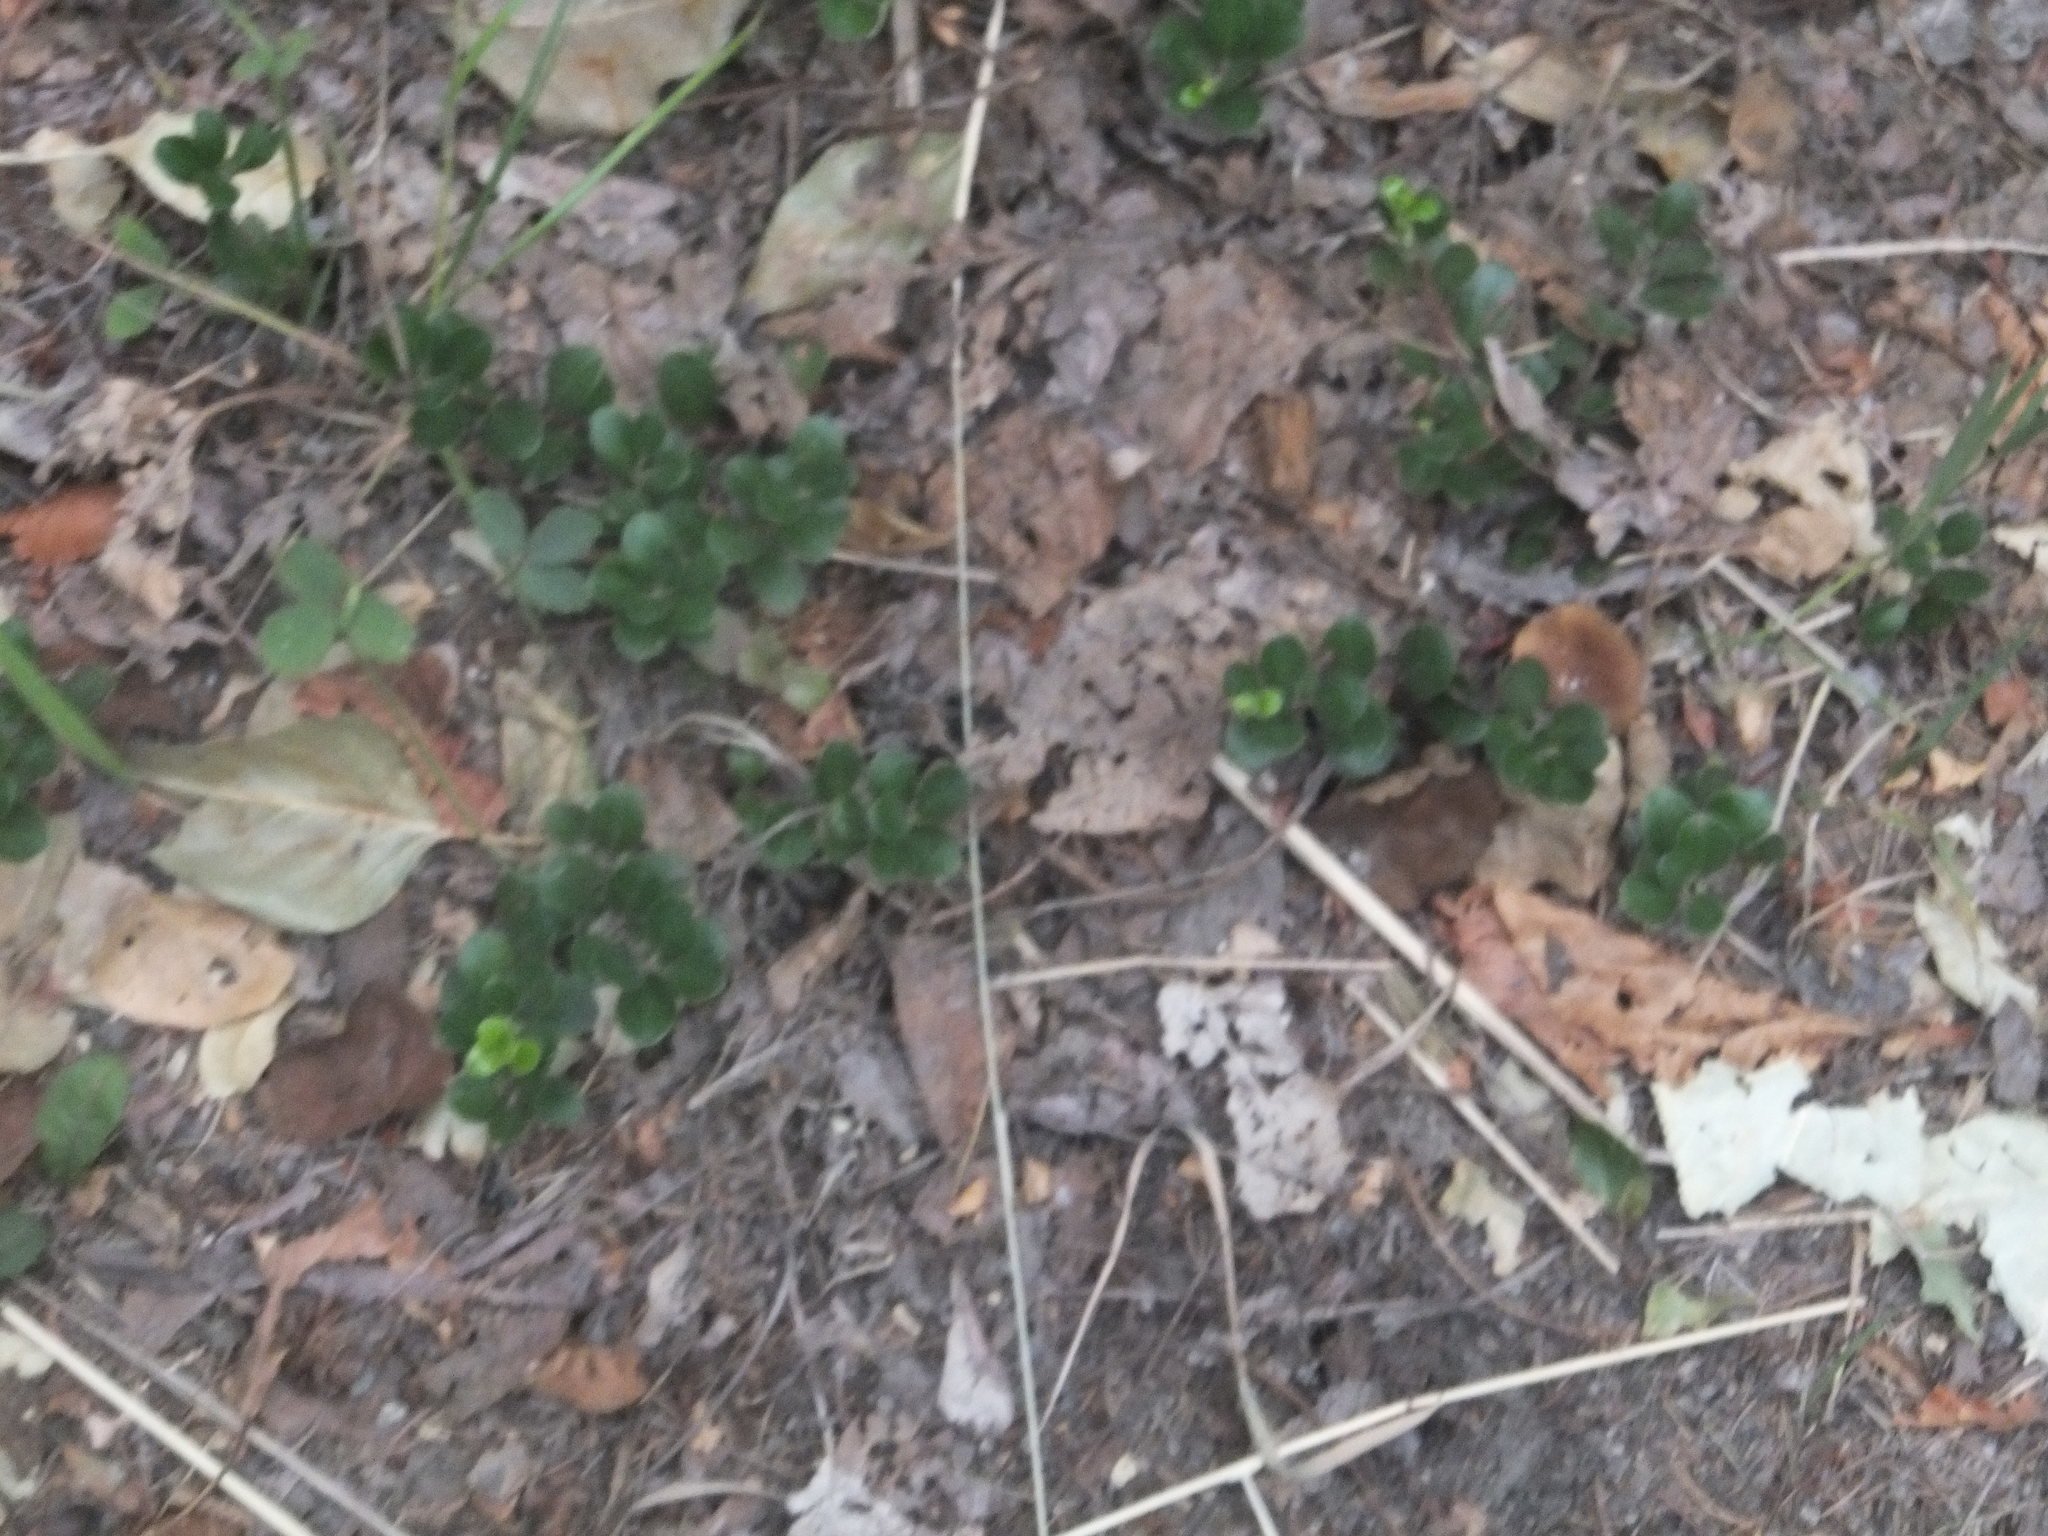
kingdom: Plantae
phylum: Tracheophyta
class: Magnoliopsida
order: Ericales
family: Ericaceae
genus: Arctostaphylos
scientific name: Arctostaphylos uva-ursi
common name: Bearberry
